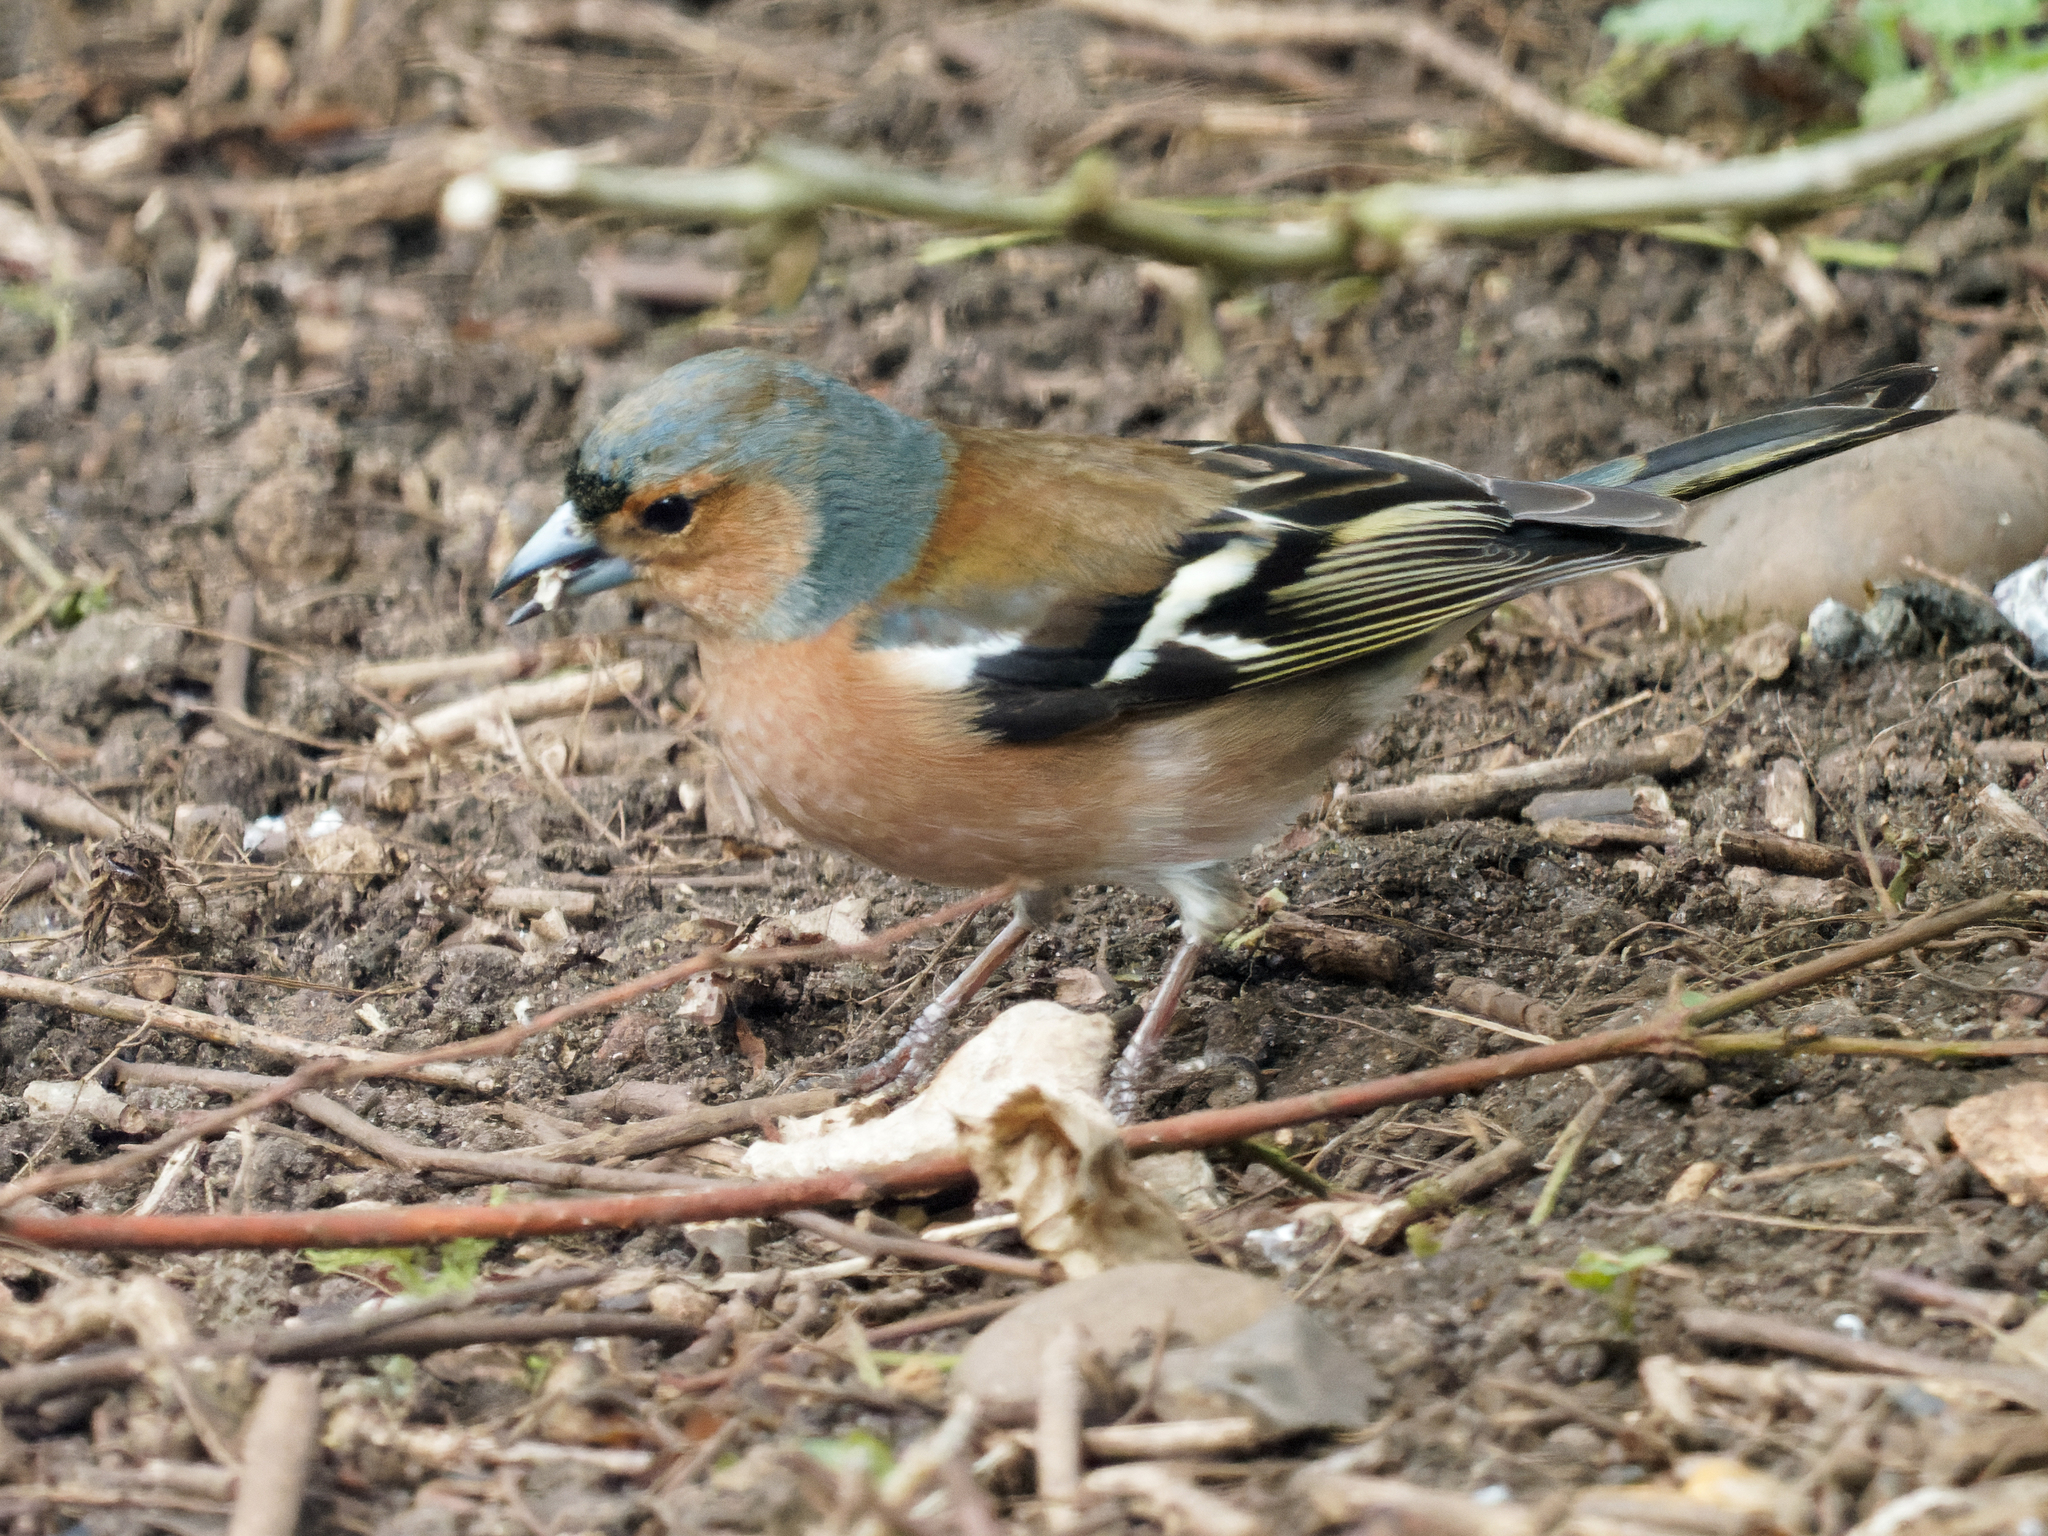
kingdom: Animalia
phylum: Chordata
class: Aves
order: Passeriformes
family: Fringillidae
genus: Fringilla
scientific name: Fringilla coelebs
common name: Common chaffinch
